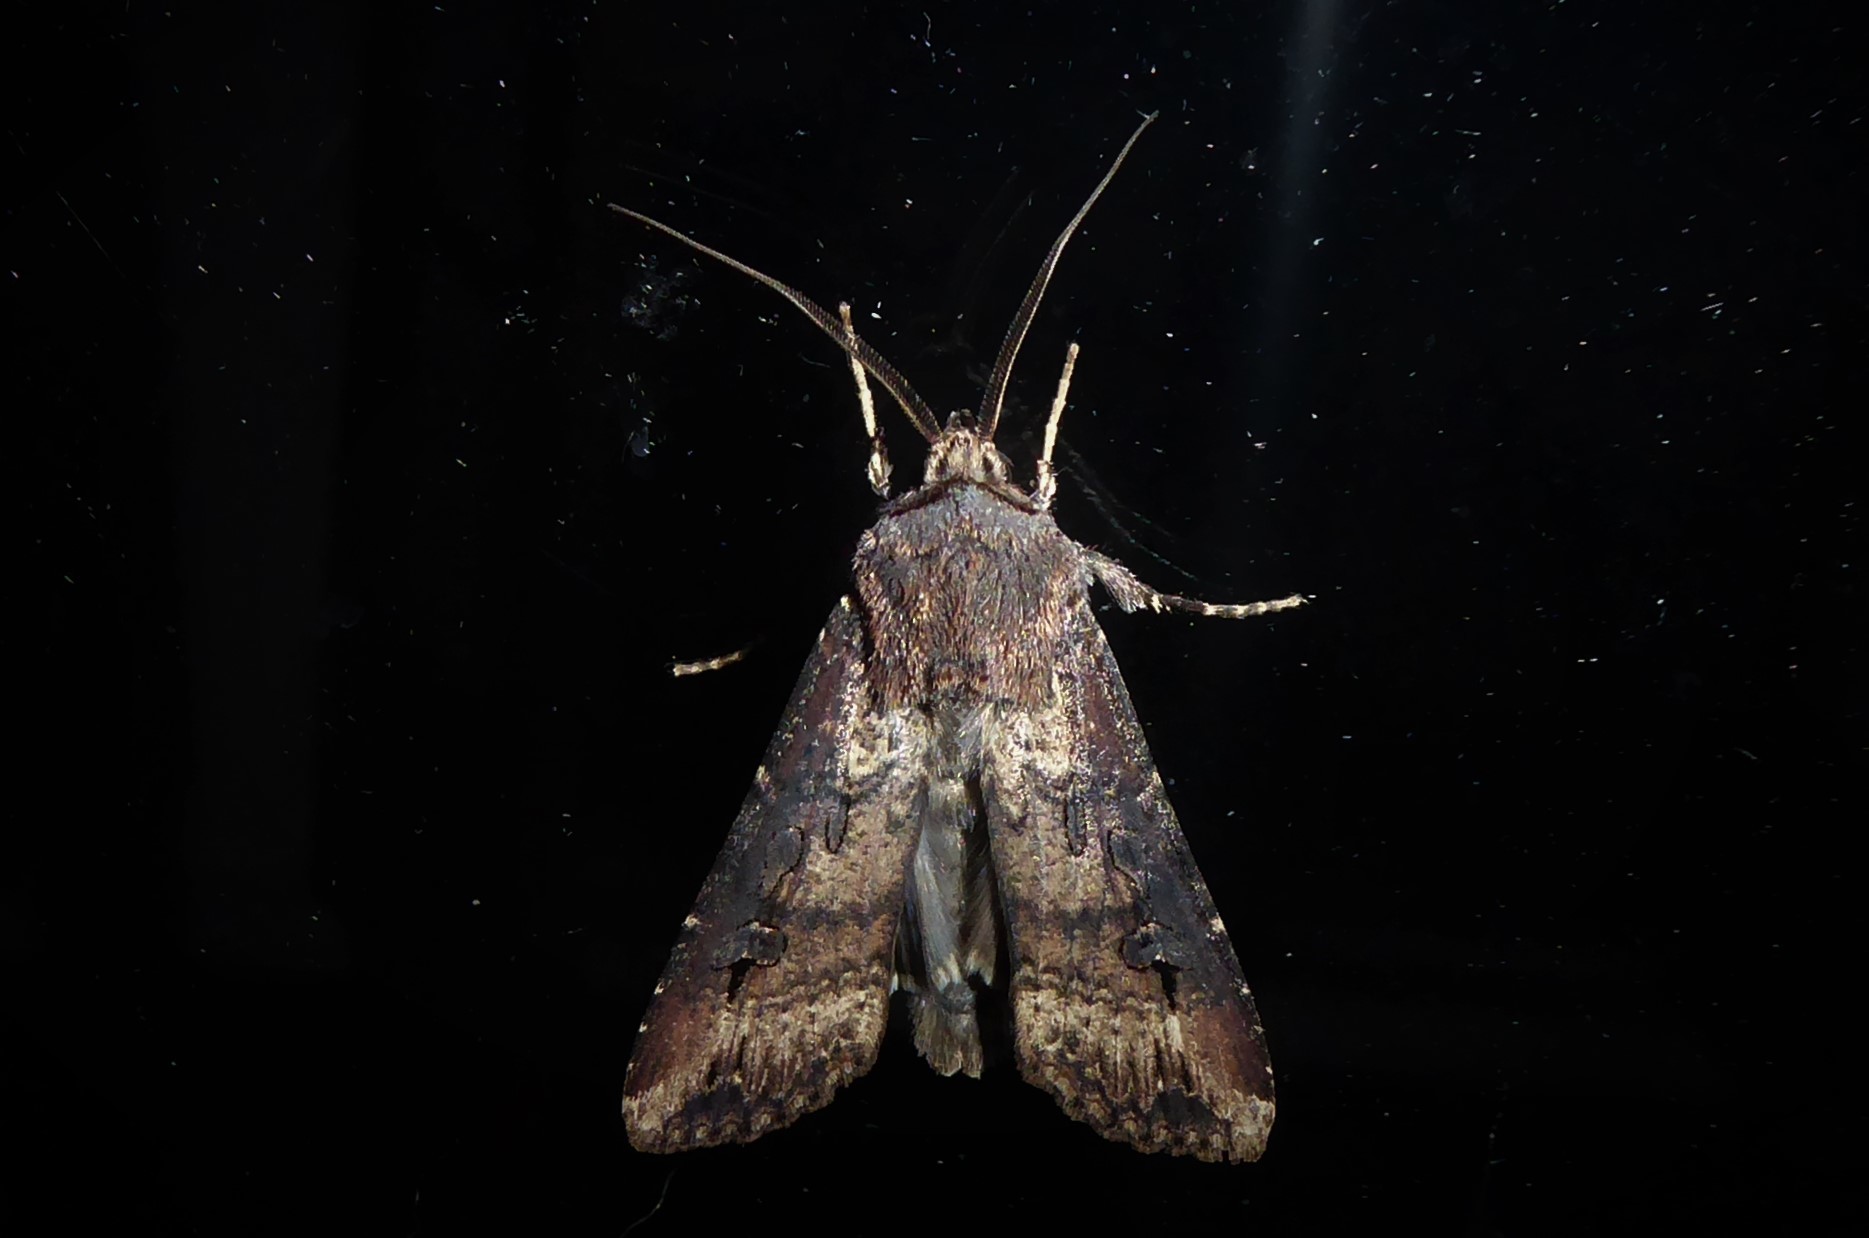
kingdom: Animalia
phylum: Arthropoda
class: Insecta
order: Lepidoptera
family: Noctuidae
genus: Agrotis
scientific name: Agrotis ipsilon
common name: Dark sword-grass
